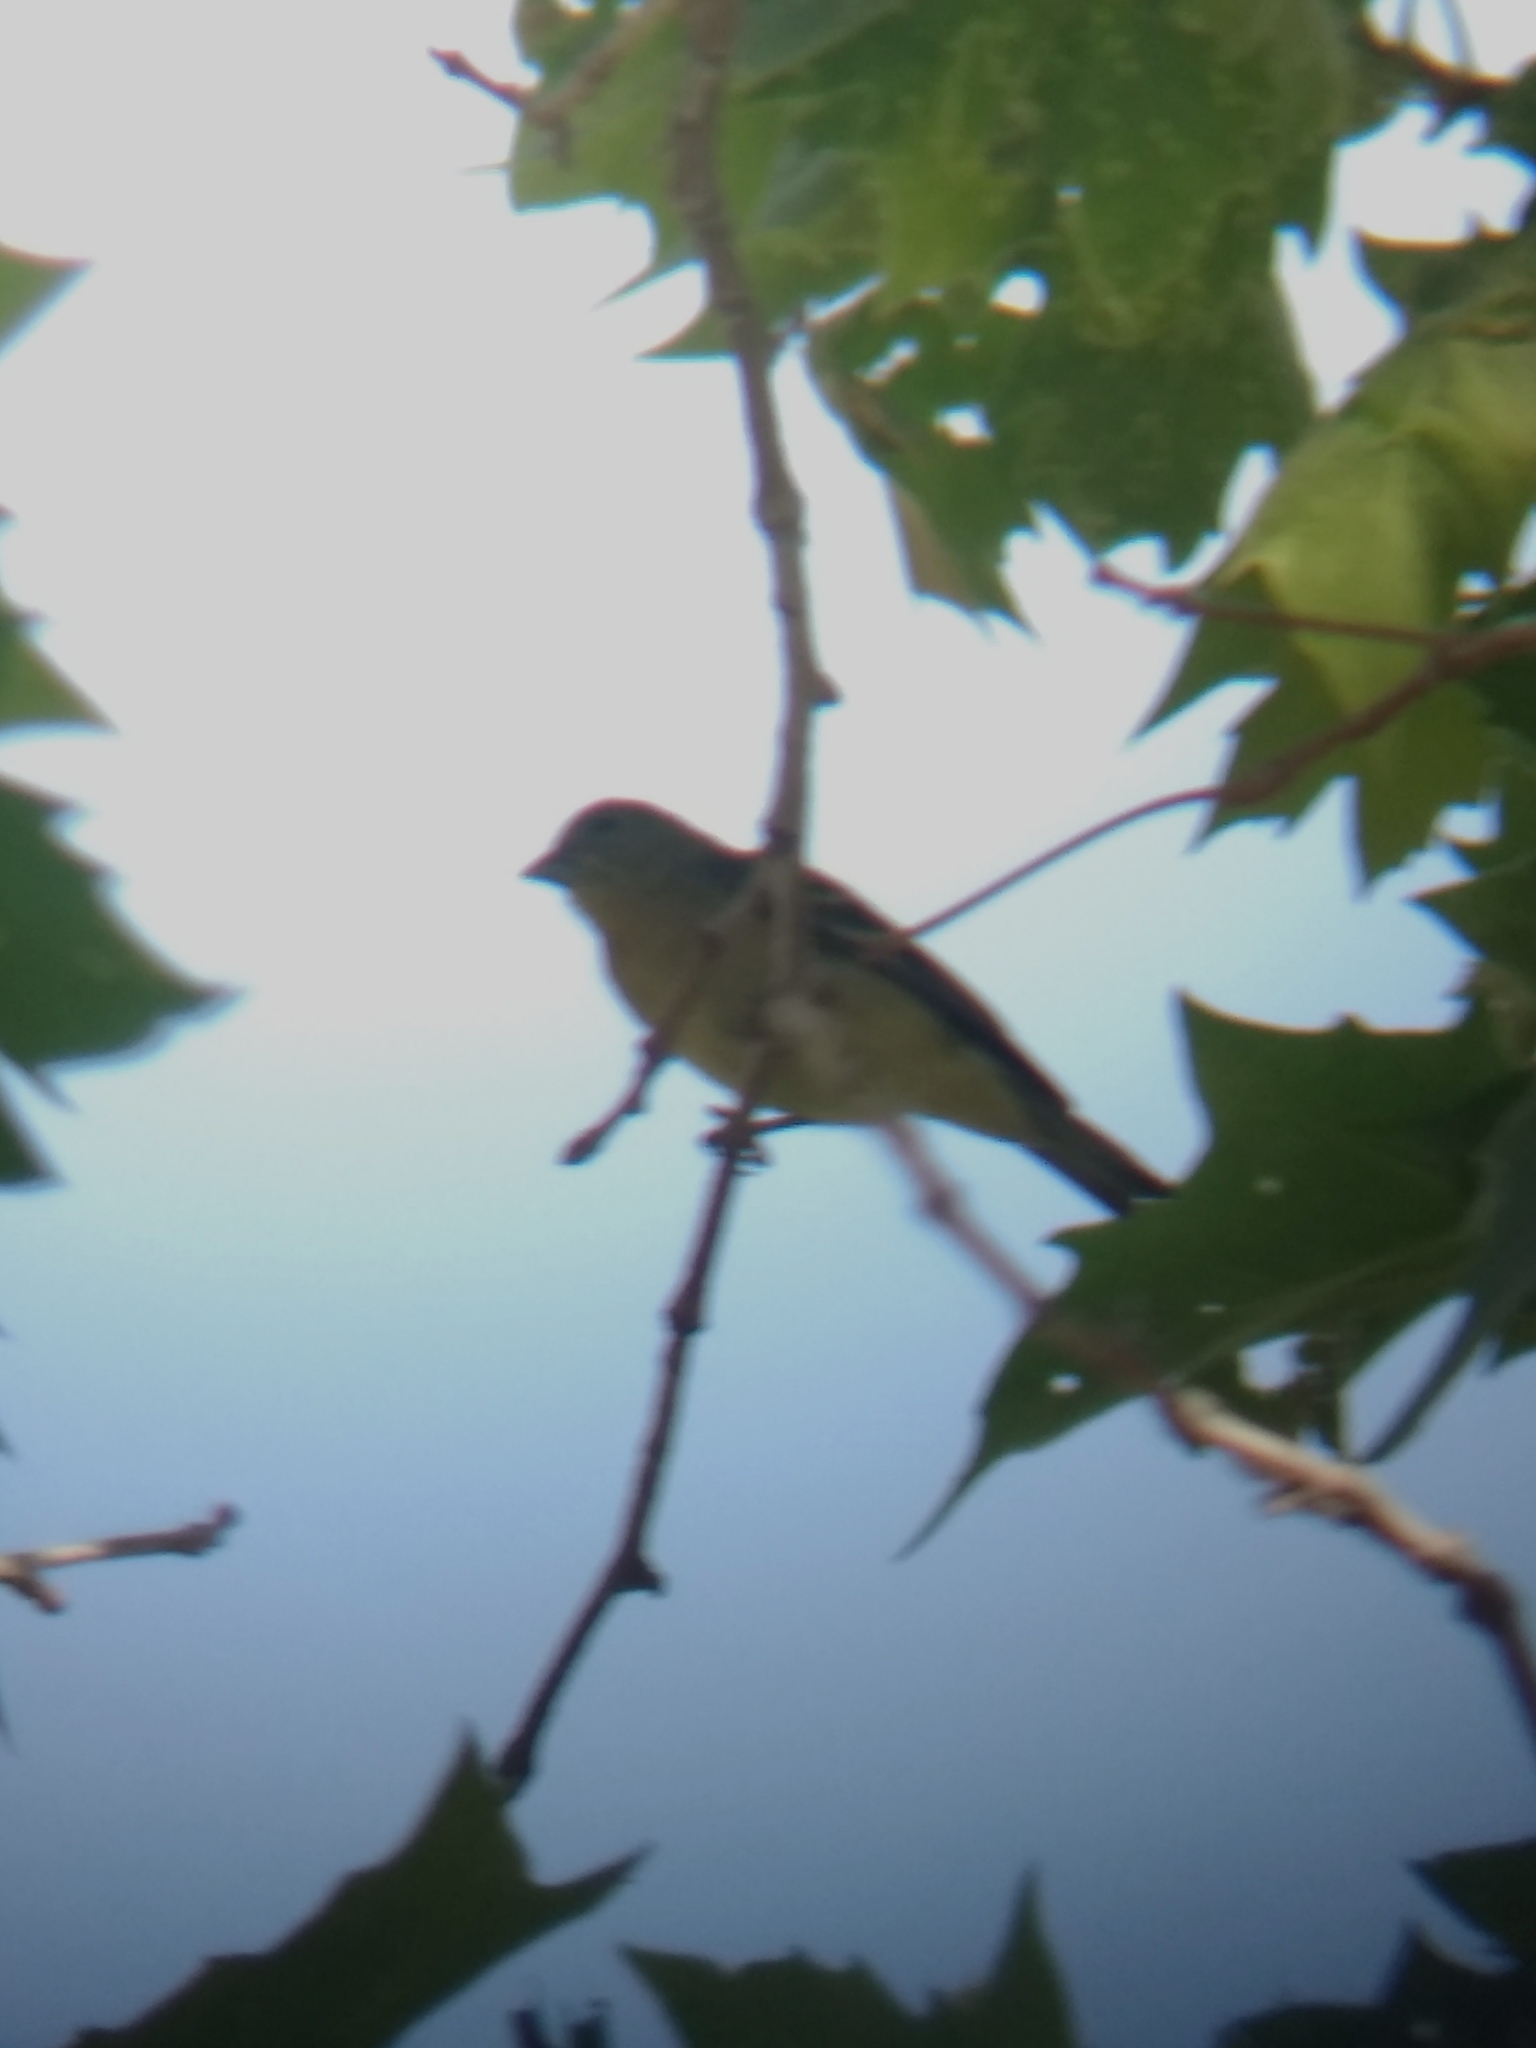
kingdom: Animalia
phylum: Chordata
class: Aves
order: Passeriformes
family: Fringillidae
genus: Spinus
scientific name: Spinus psaltria
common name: Lesser goldfinch
